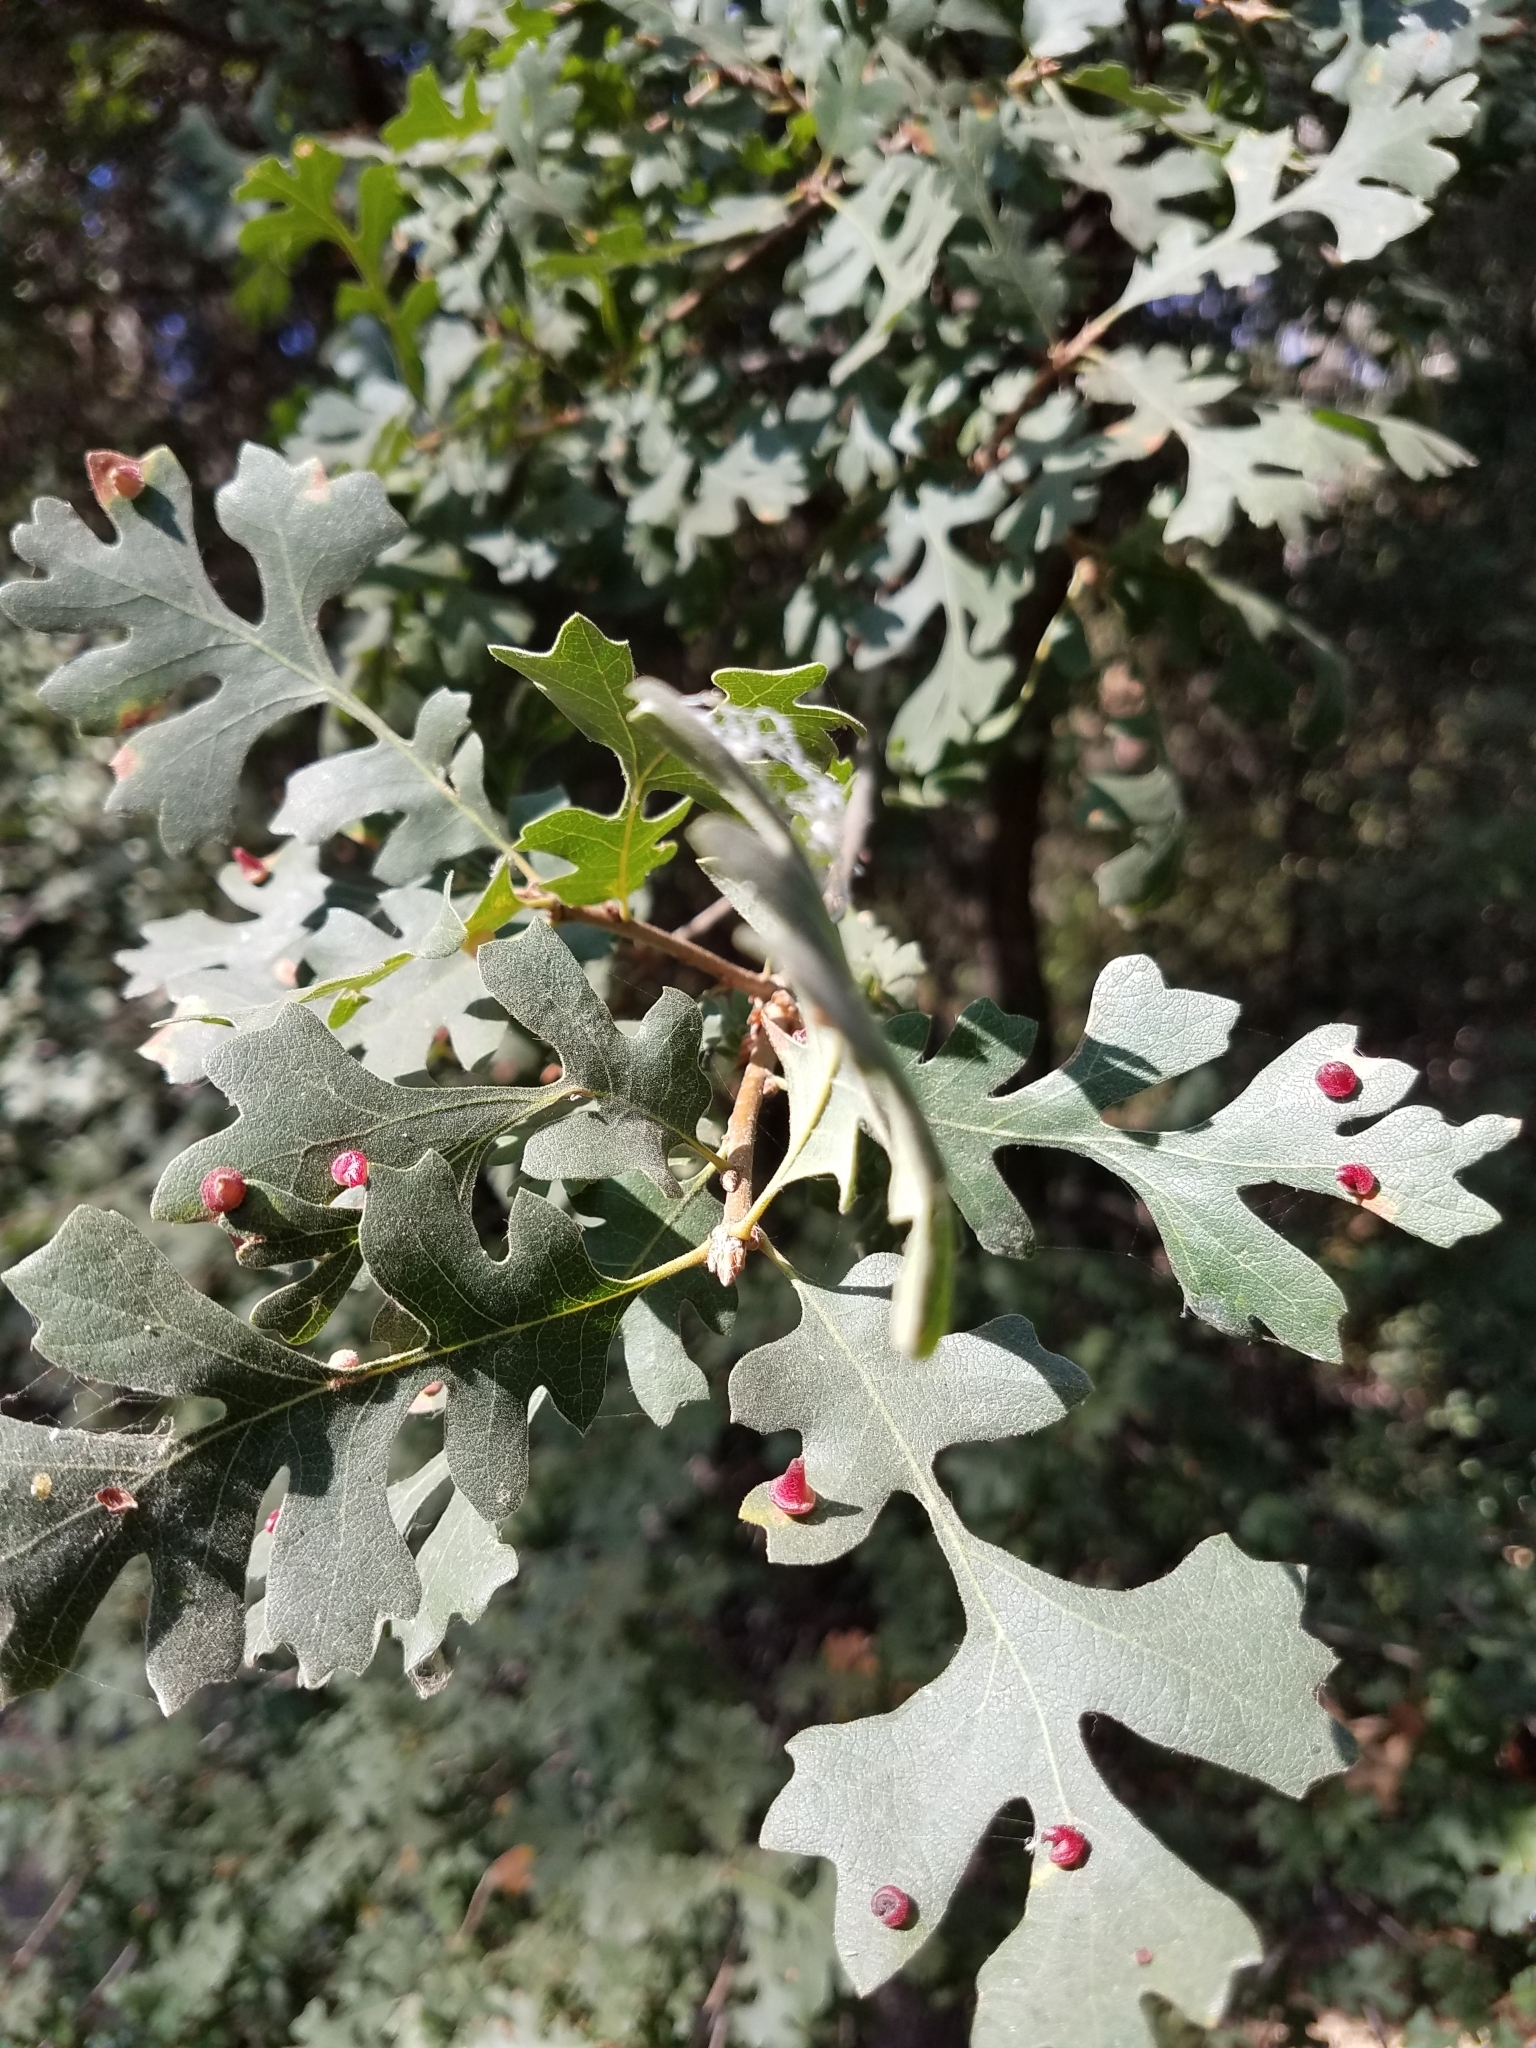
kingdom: Animalia
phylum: Arthropoda
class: Insecta
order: Hymenoptera
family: Cynipidae
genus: Andricus
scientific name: Andricus
